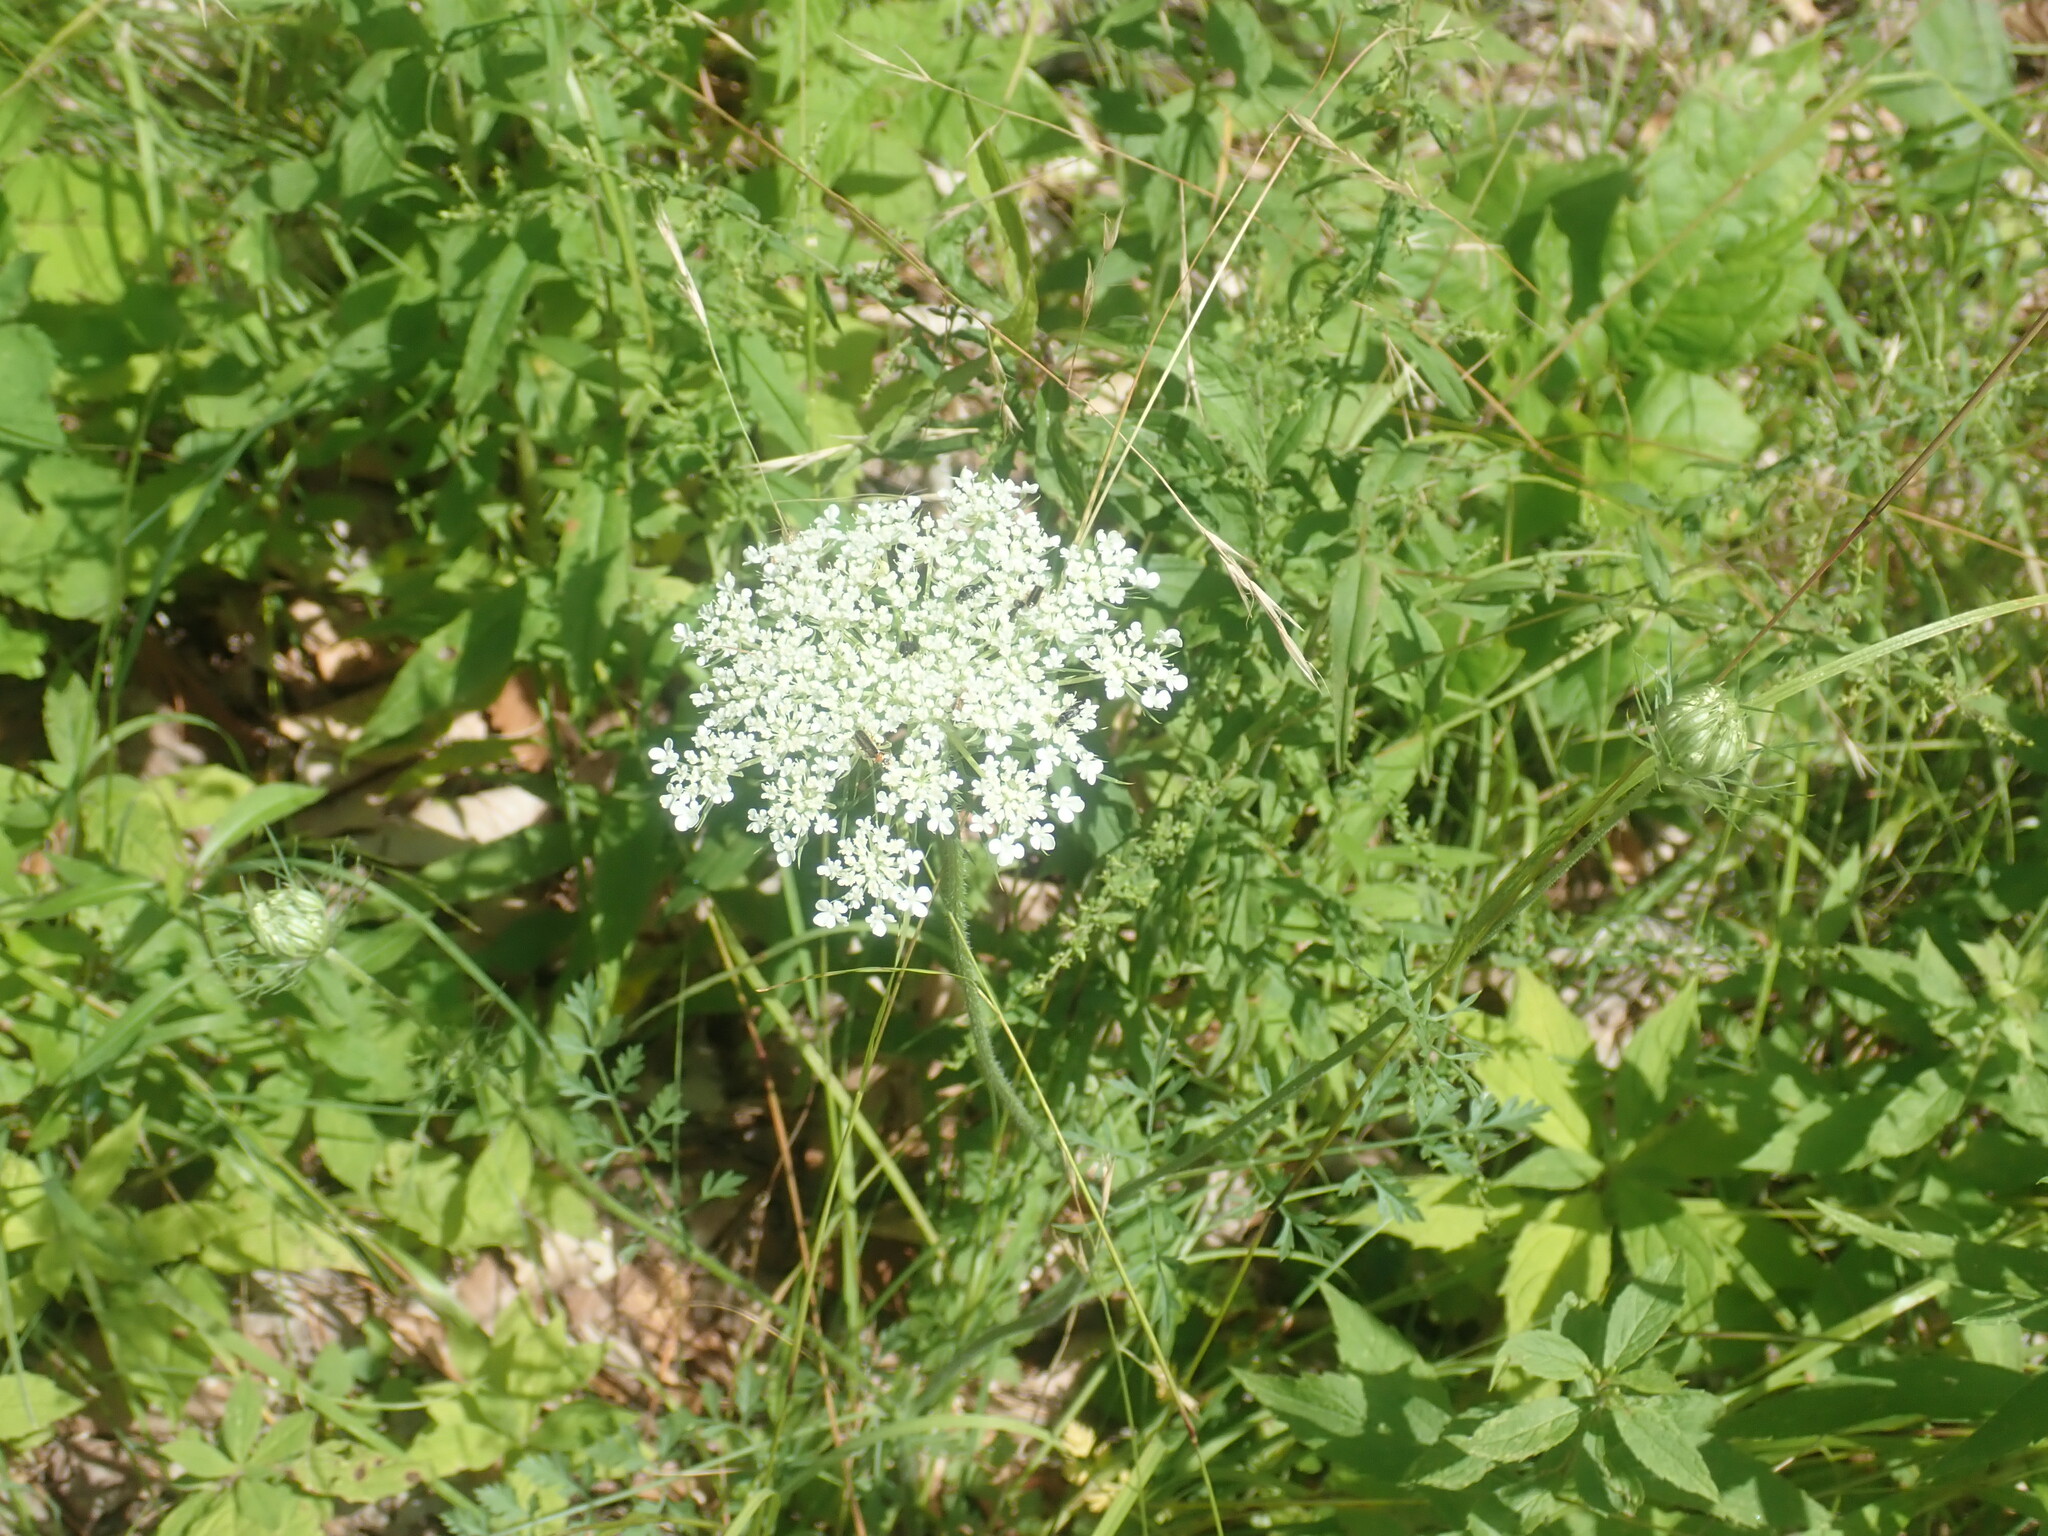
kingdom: Plantae
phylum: Tracheophyta
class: Magnoliopsida
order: Apiales
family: Apiaceae
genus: Daucus
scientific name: Daucus carota
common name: Wild carrot
